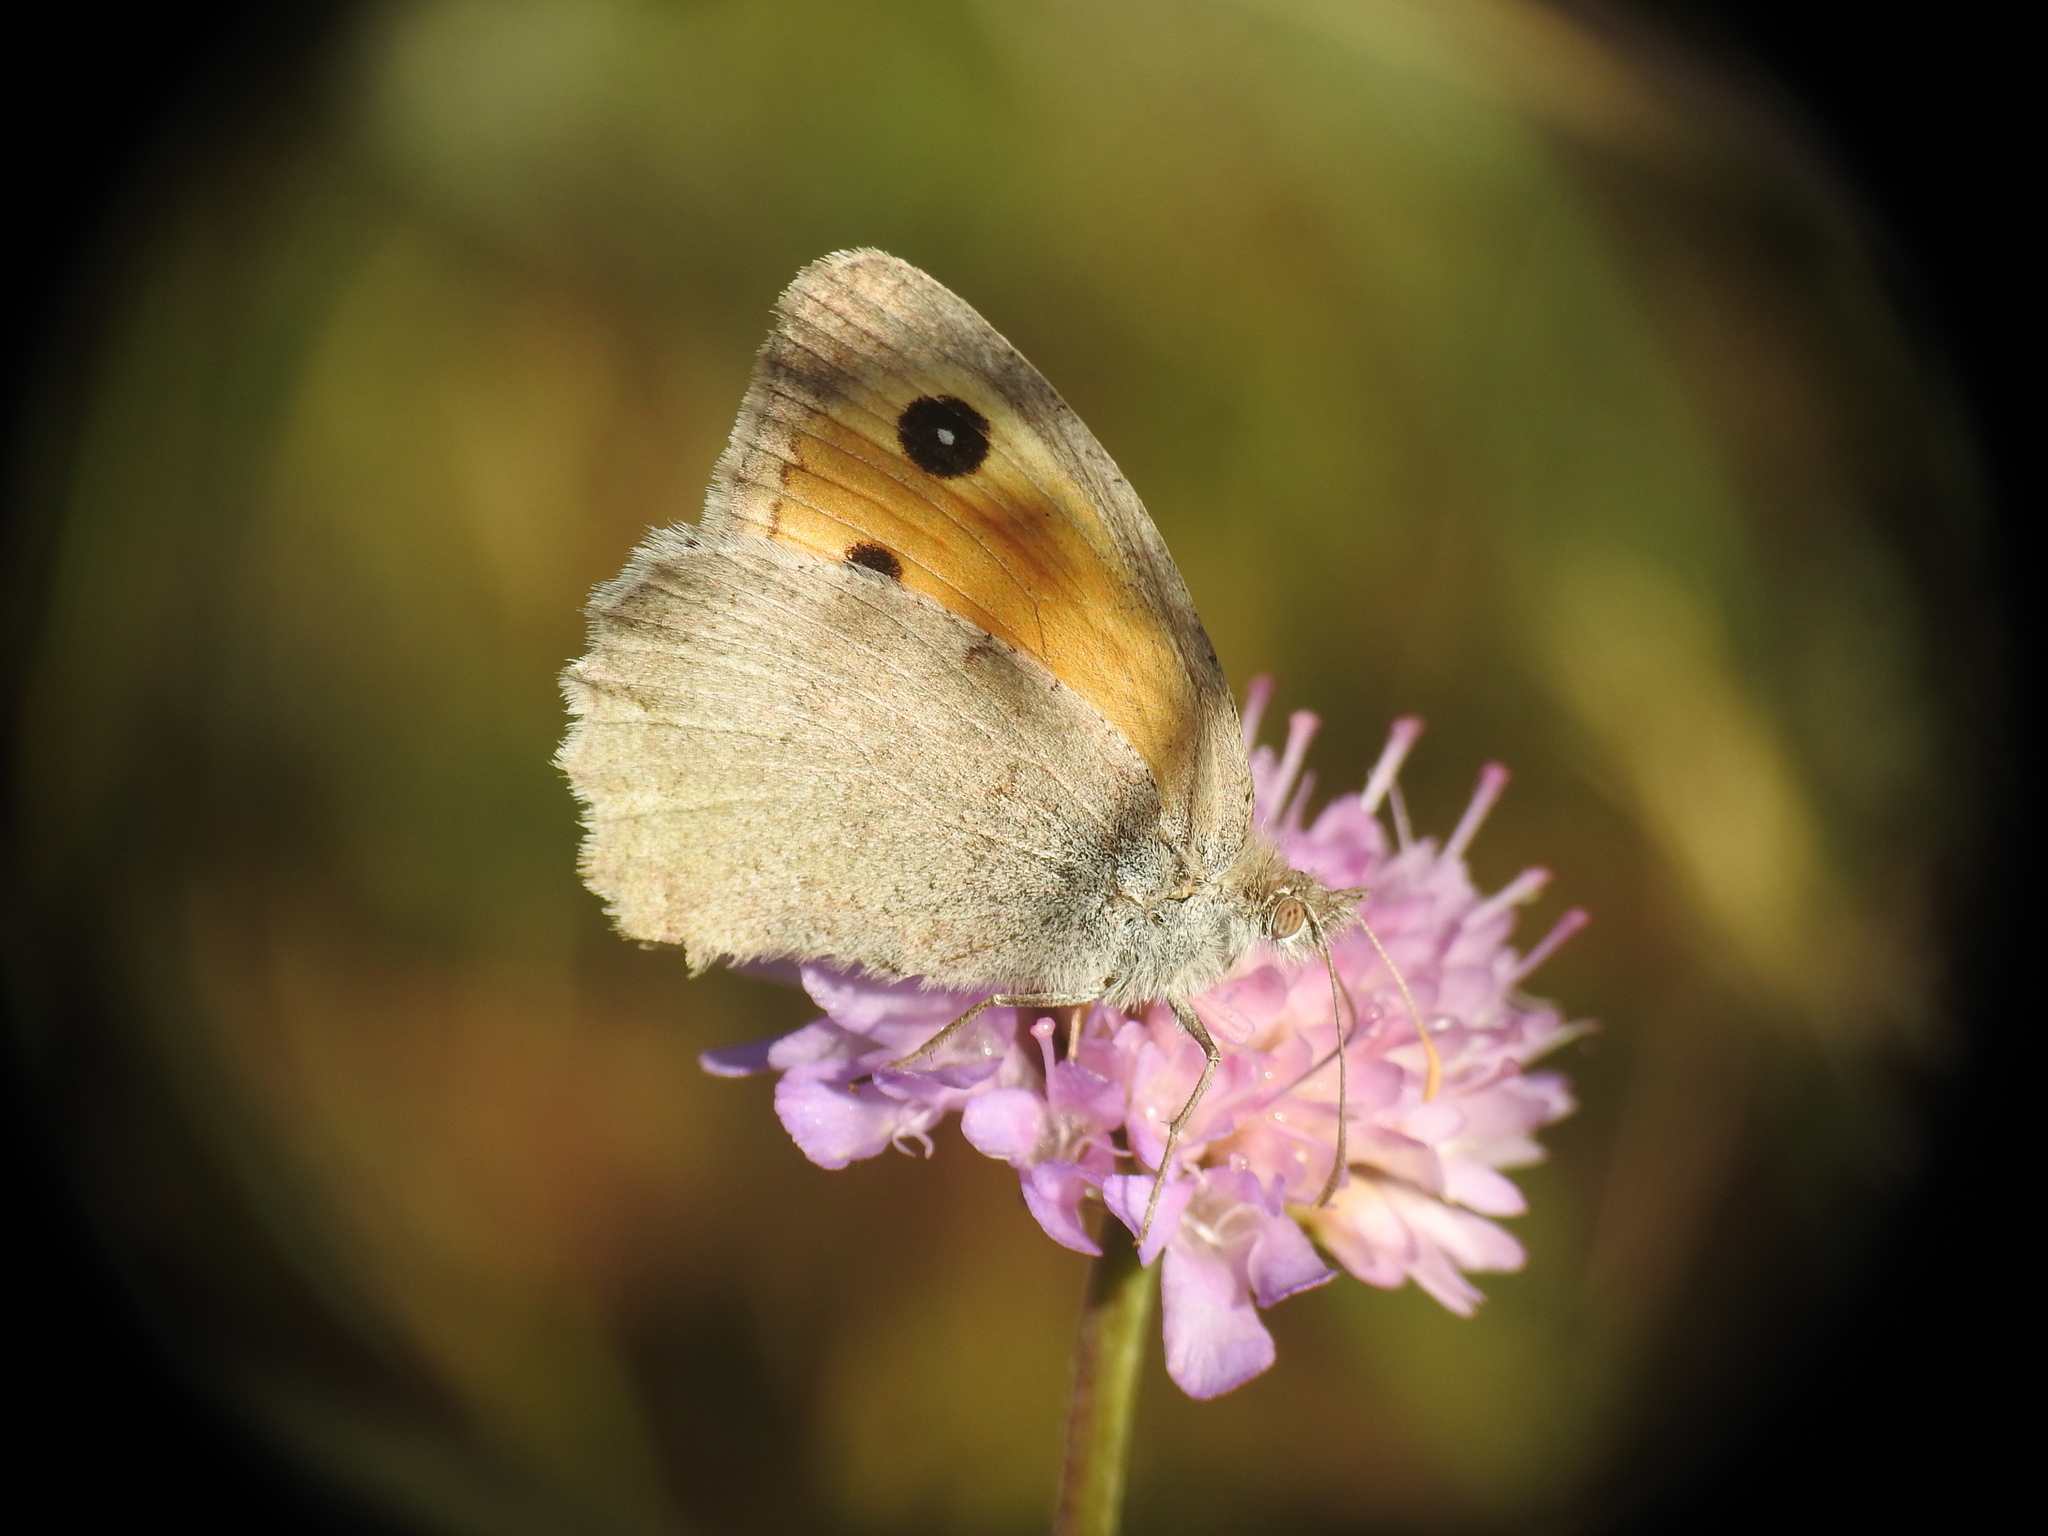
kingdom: Animalia
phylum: Arthropoda
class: Insecta
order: Lepidoptera
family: Nymphalidae
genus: Hyponephele
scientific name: Hyponephele lycaon
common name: Dusky meadow brown
